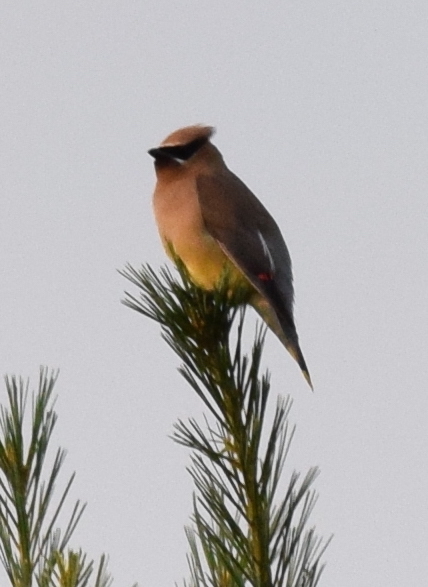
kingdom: Animalia
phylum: Chordata
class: Aves
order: Passeriformes
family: Bombycillidae
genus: Bombycilla
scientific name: Bombycilla cedrorum
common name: Cedar waxwing
